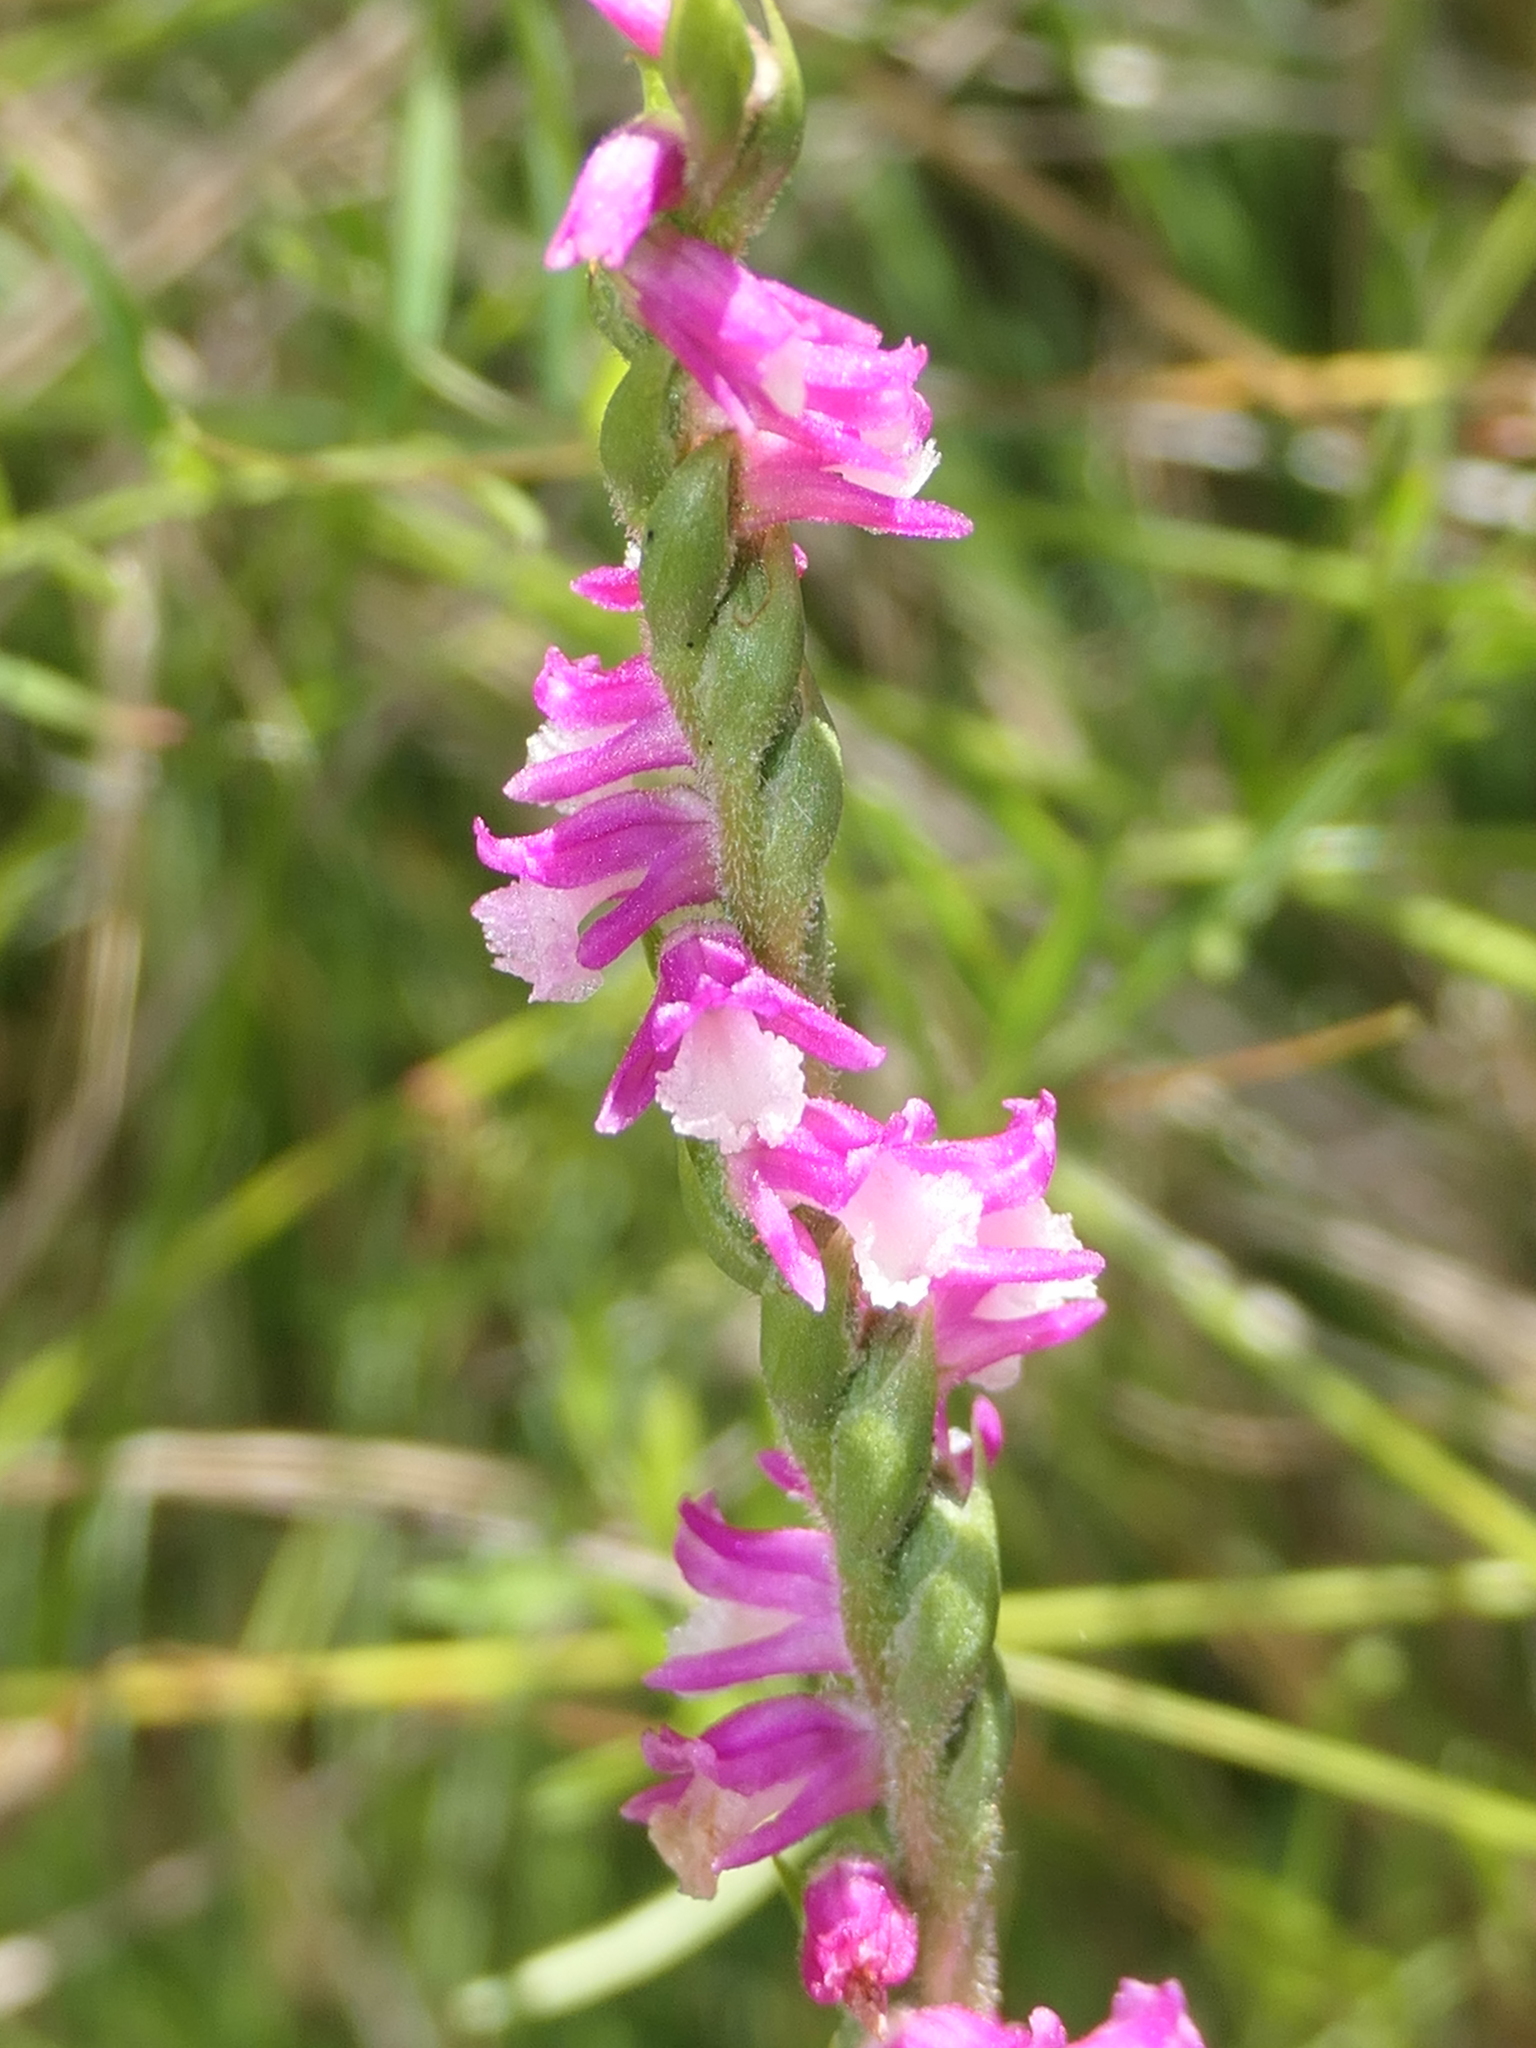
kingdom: Plantae
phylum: Tracheophyta
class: Liliopsida
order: Asparagales
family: Orchidaceae
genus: Spiranthes
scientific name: Spiranthes australis
